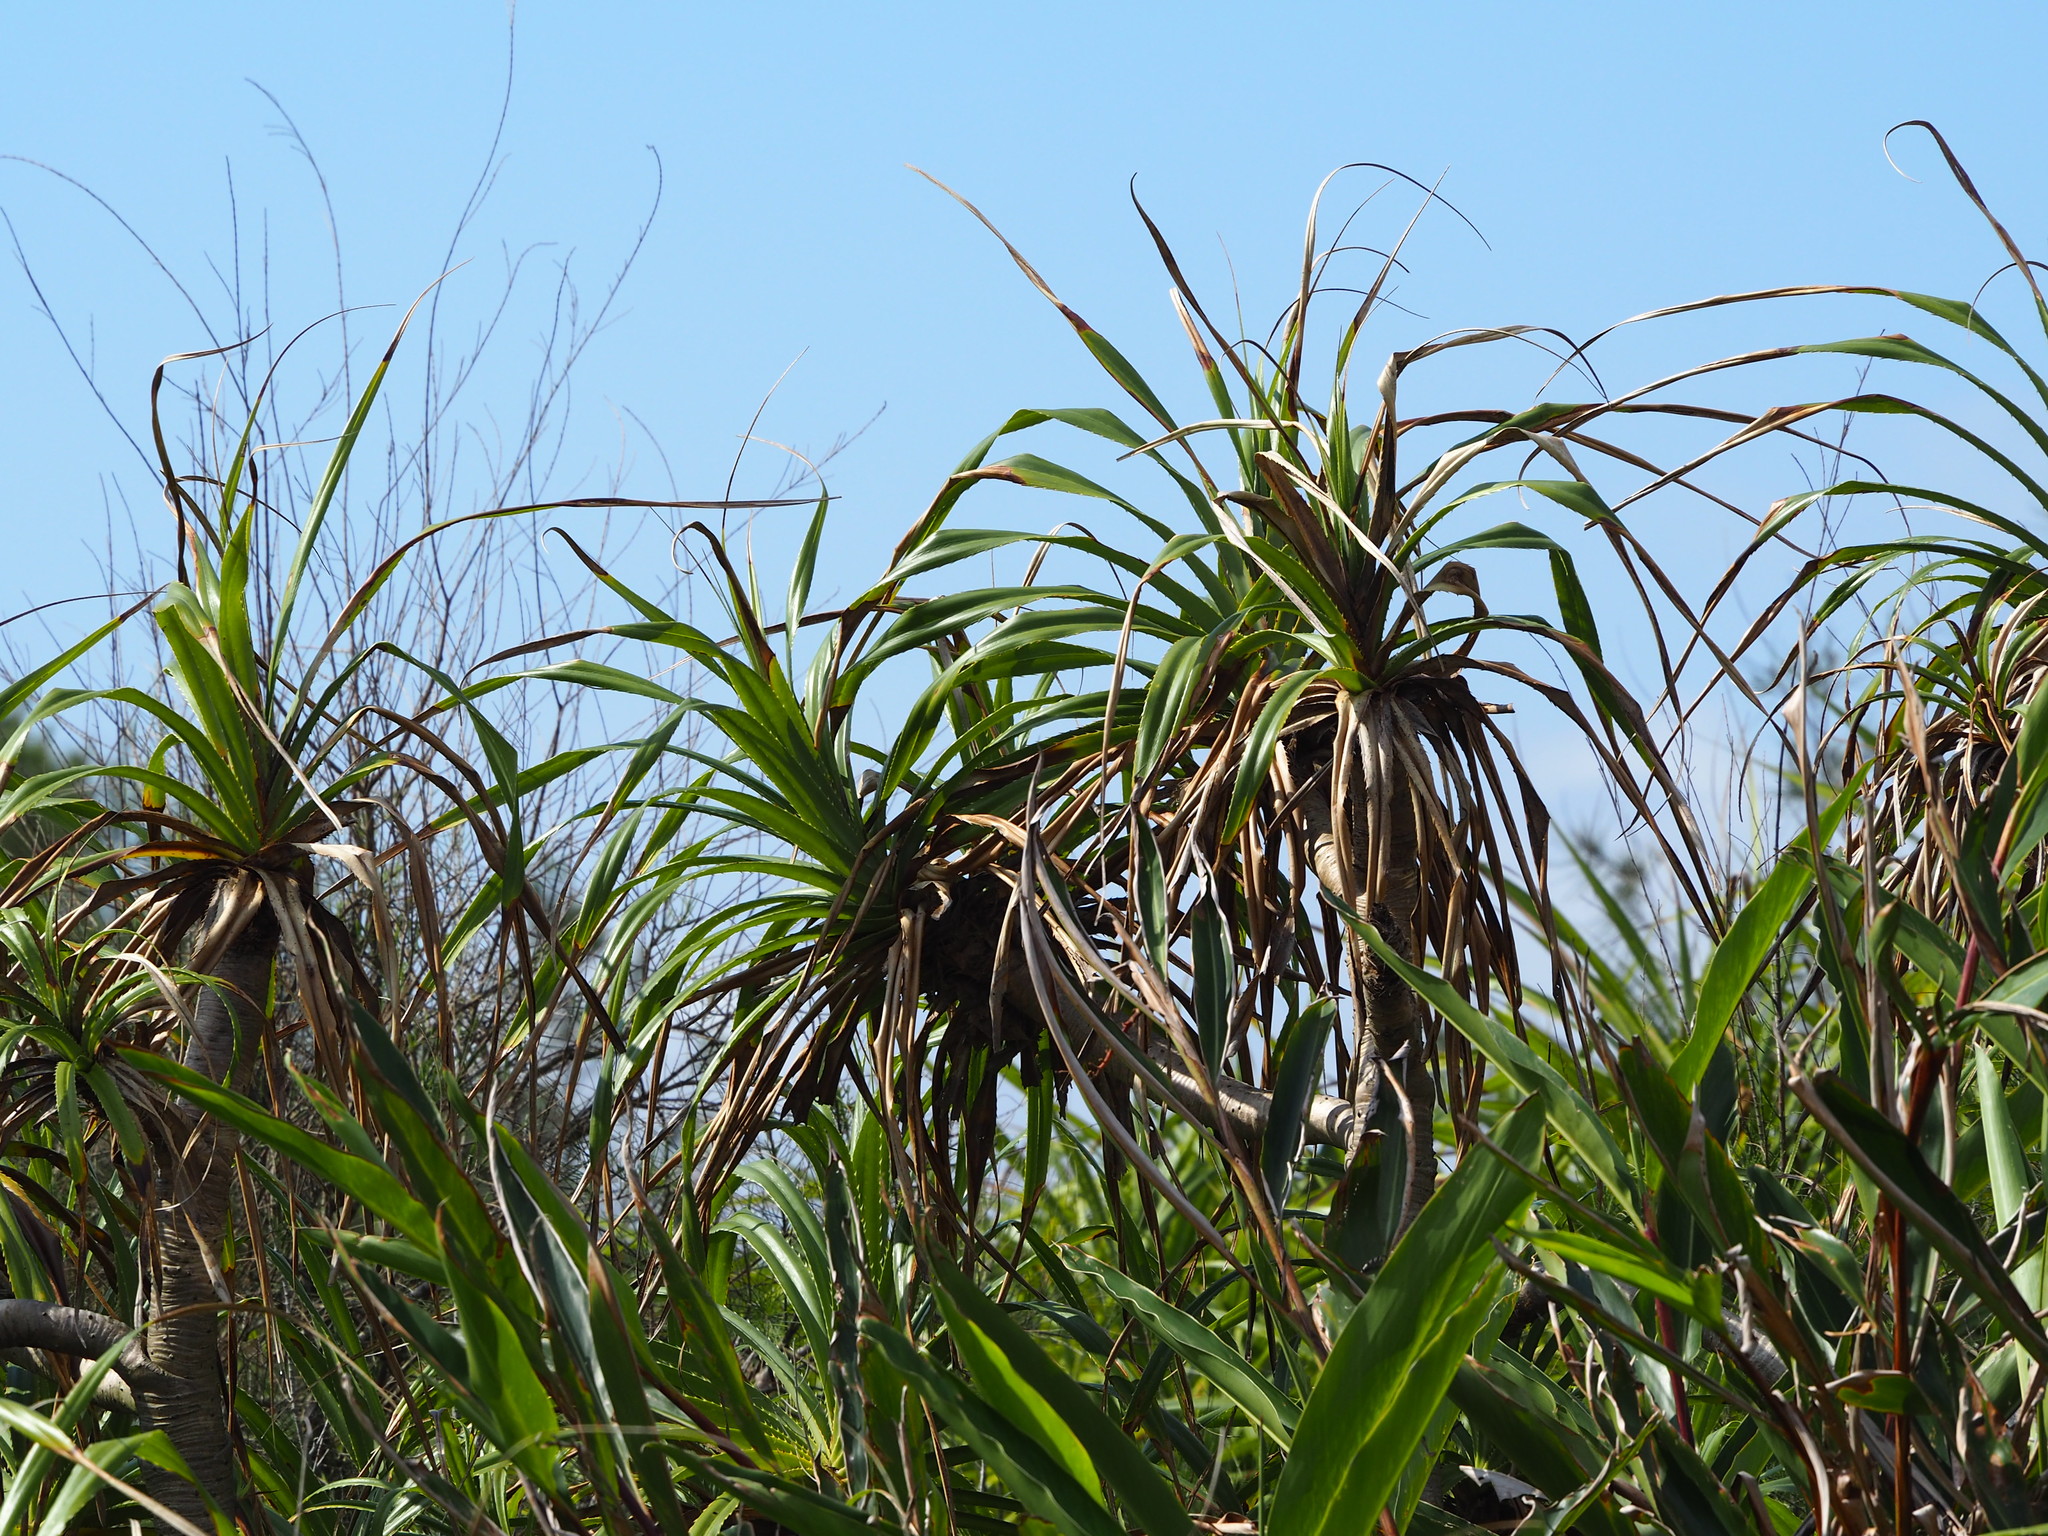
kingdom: Plantae
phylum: Tracheophyta
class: Liliopsida
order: Pandanales
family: Pandanaceae
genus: Pandanus
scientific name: Pandanus odorifer
